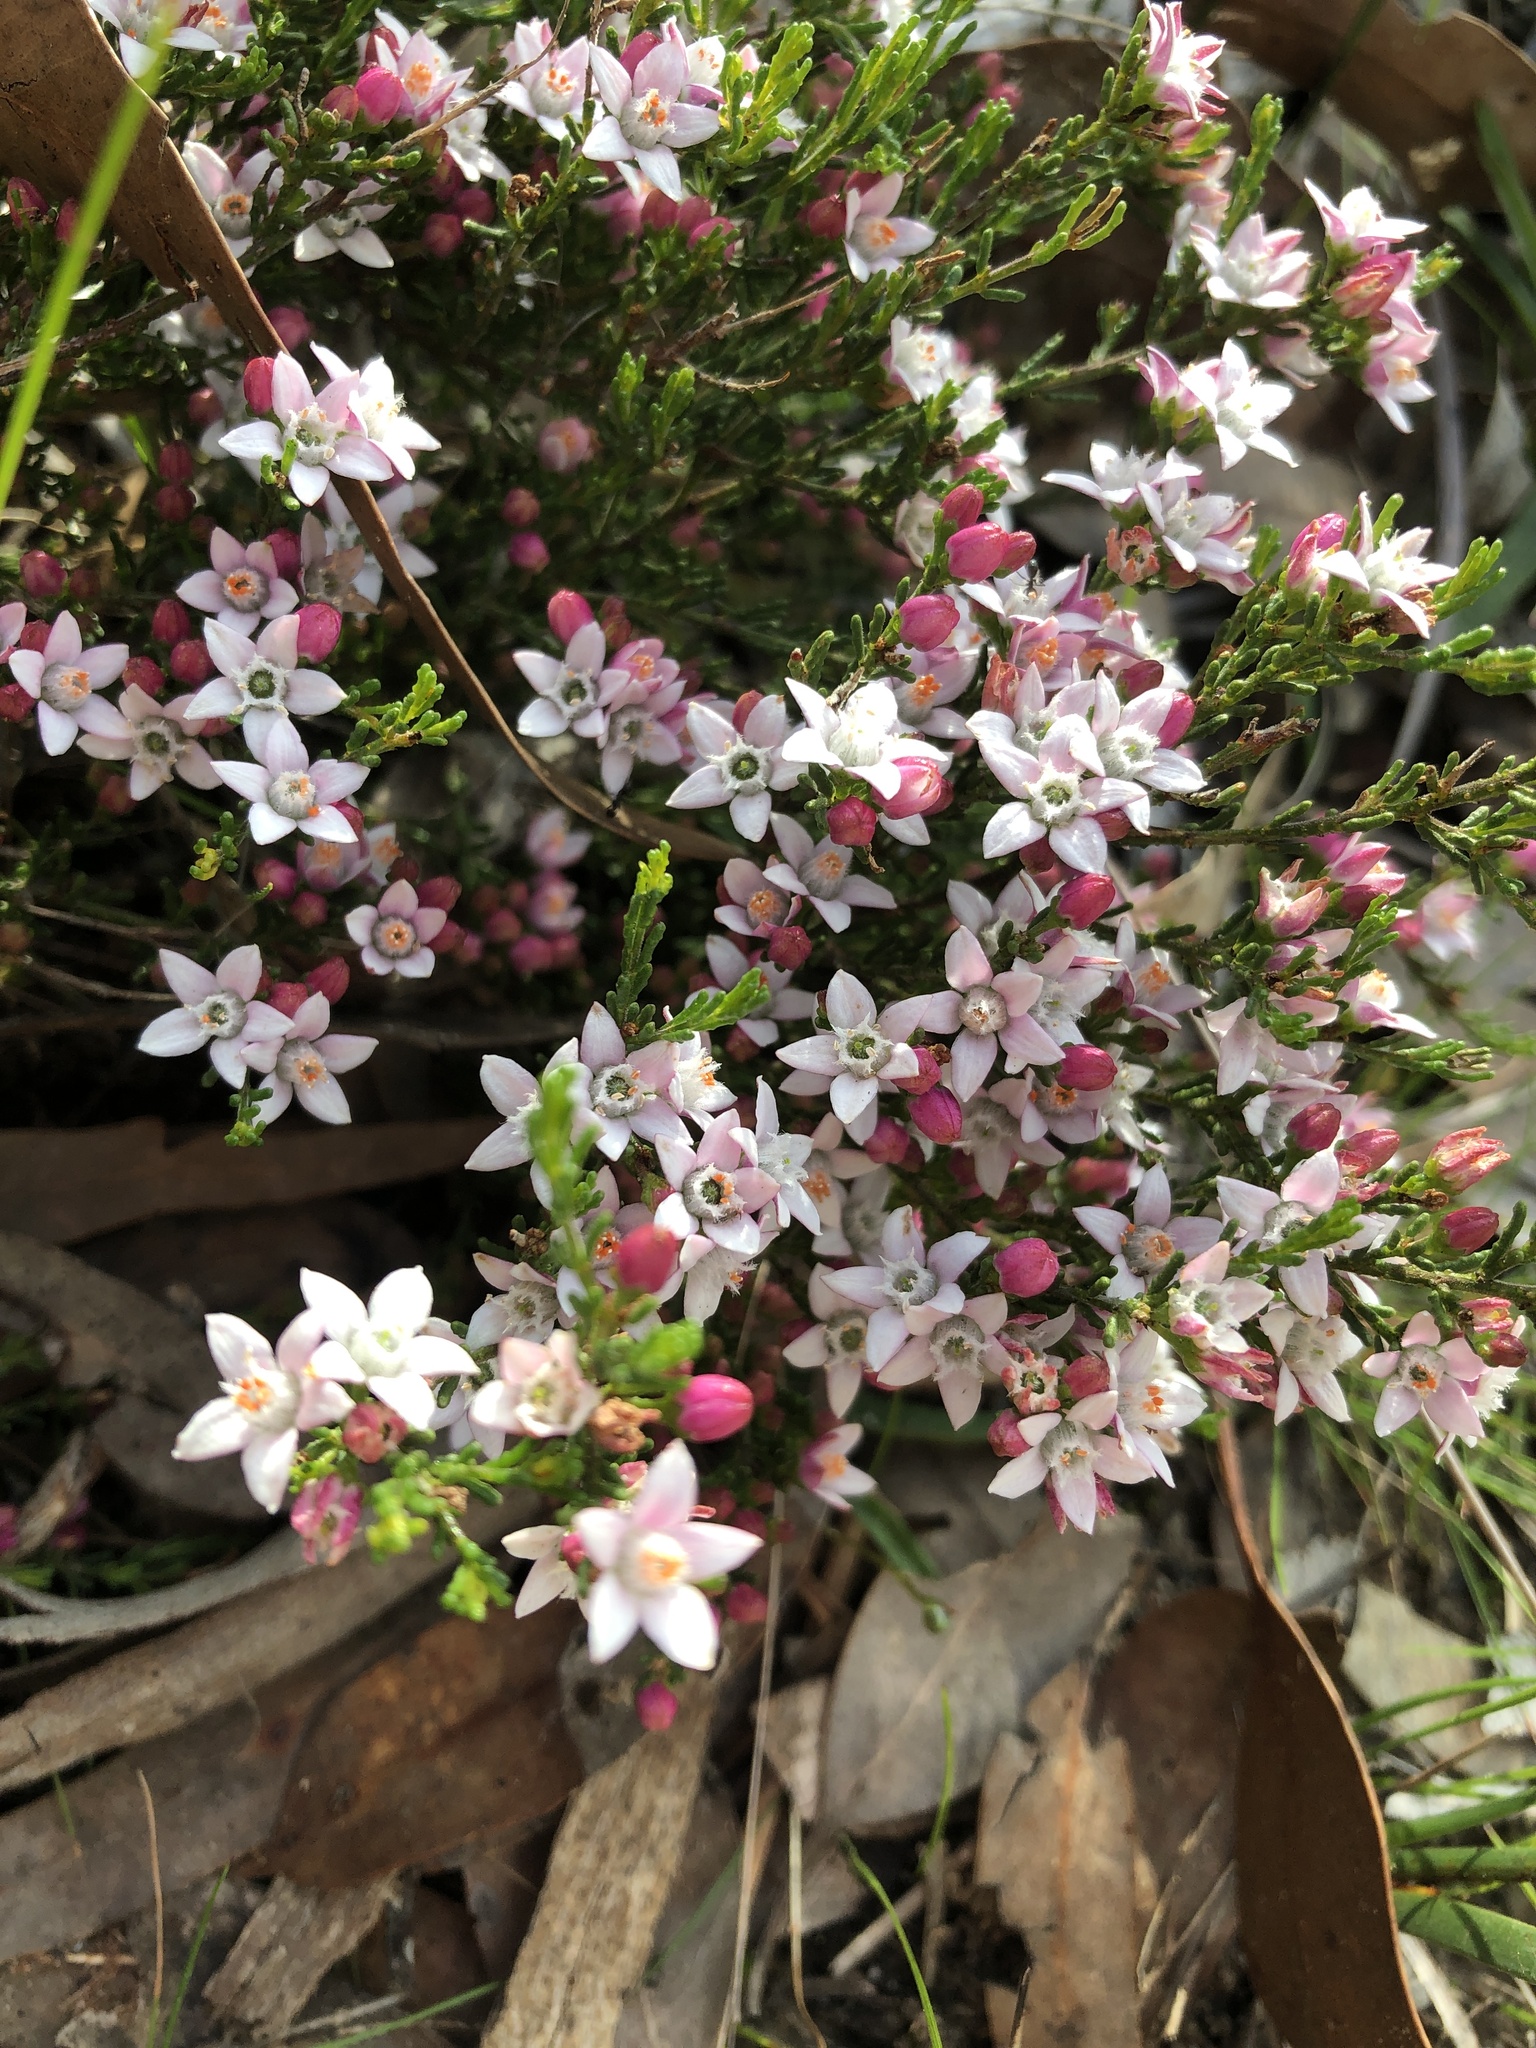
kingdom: Plantae
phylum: Tracheophyta
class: Magnoliopsida
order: Sapindales
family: Rutaceae
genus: Philotheca
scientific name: Philotheca angustifolia
